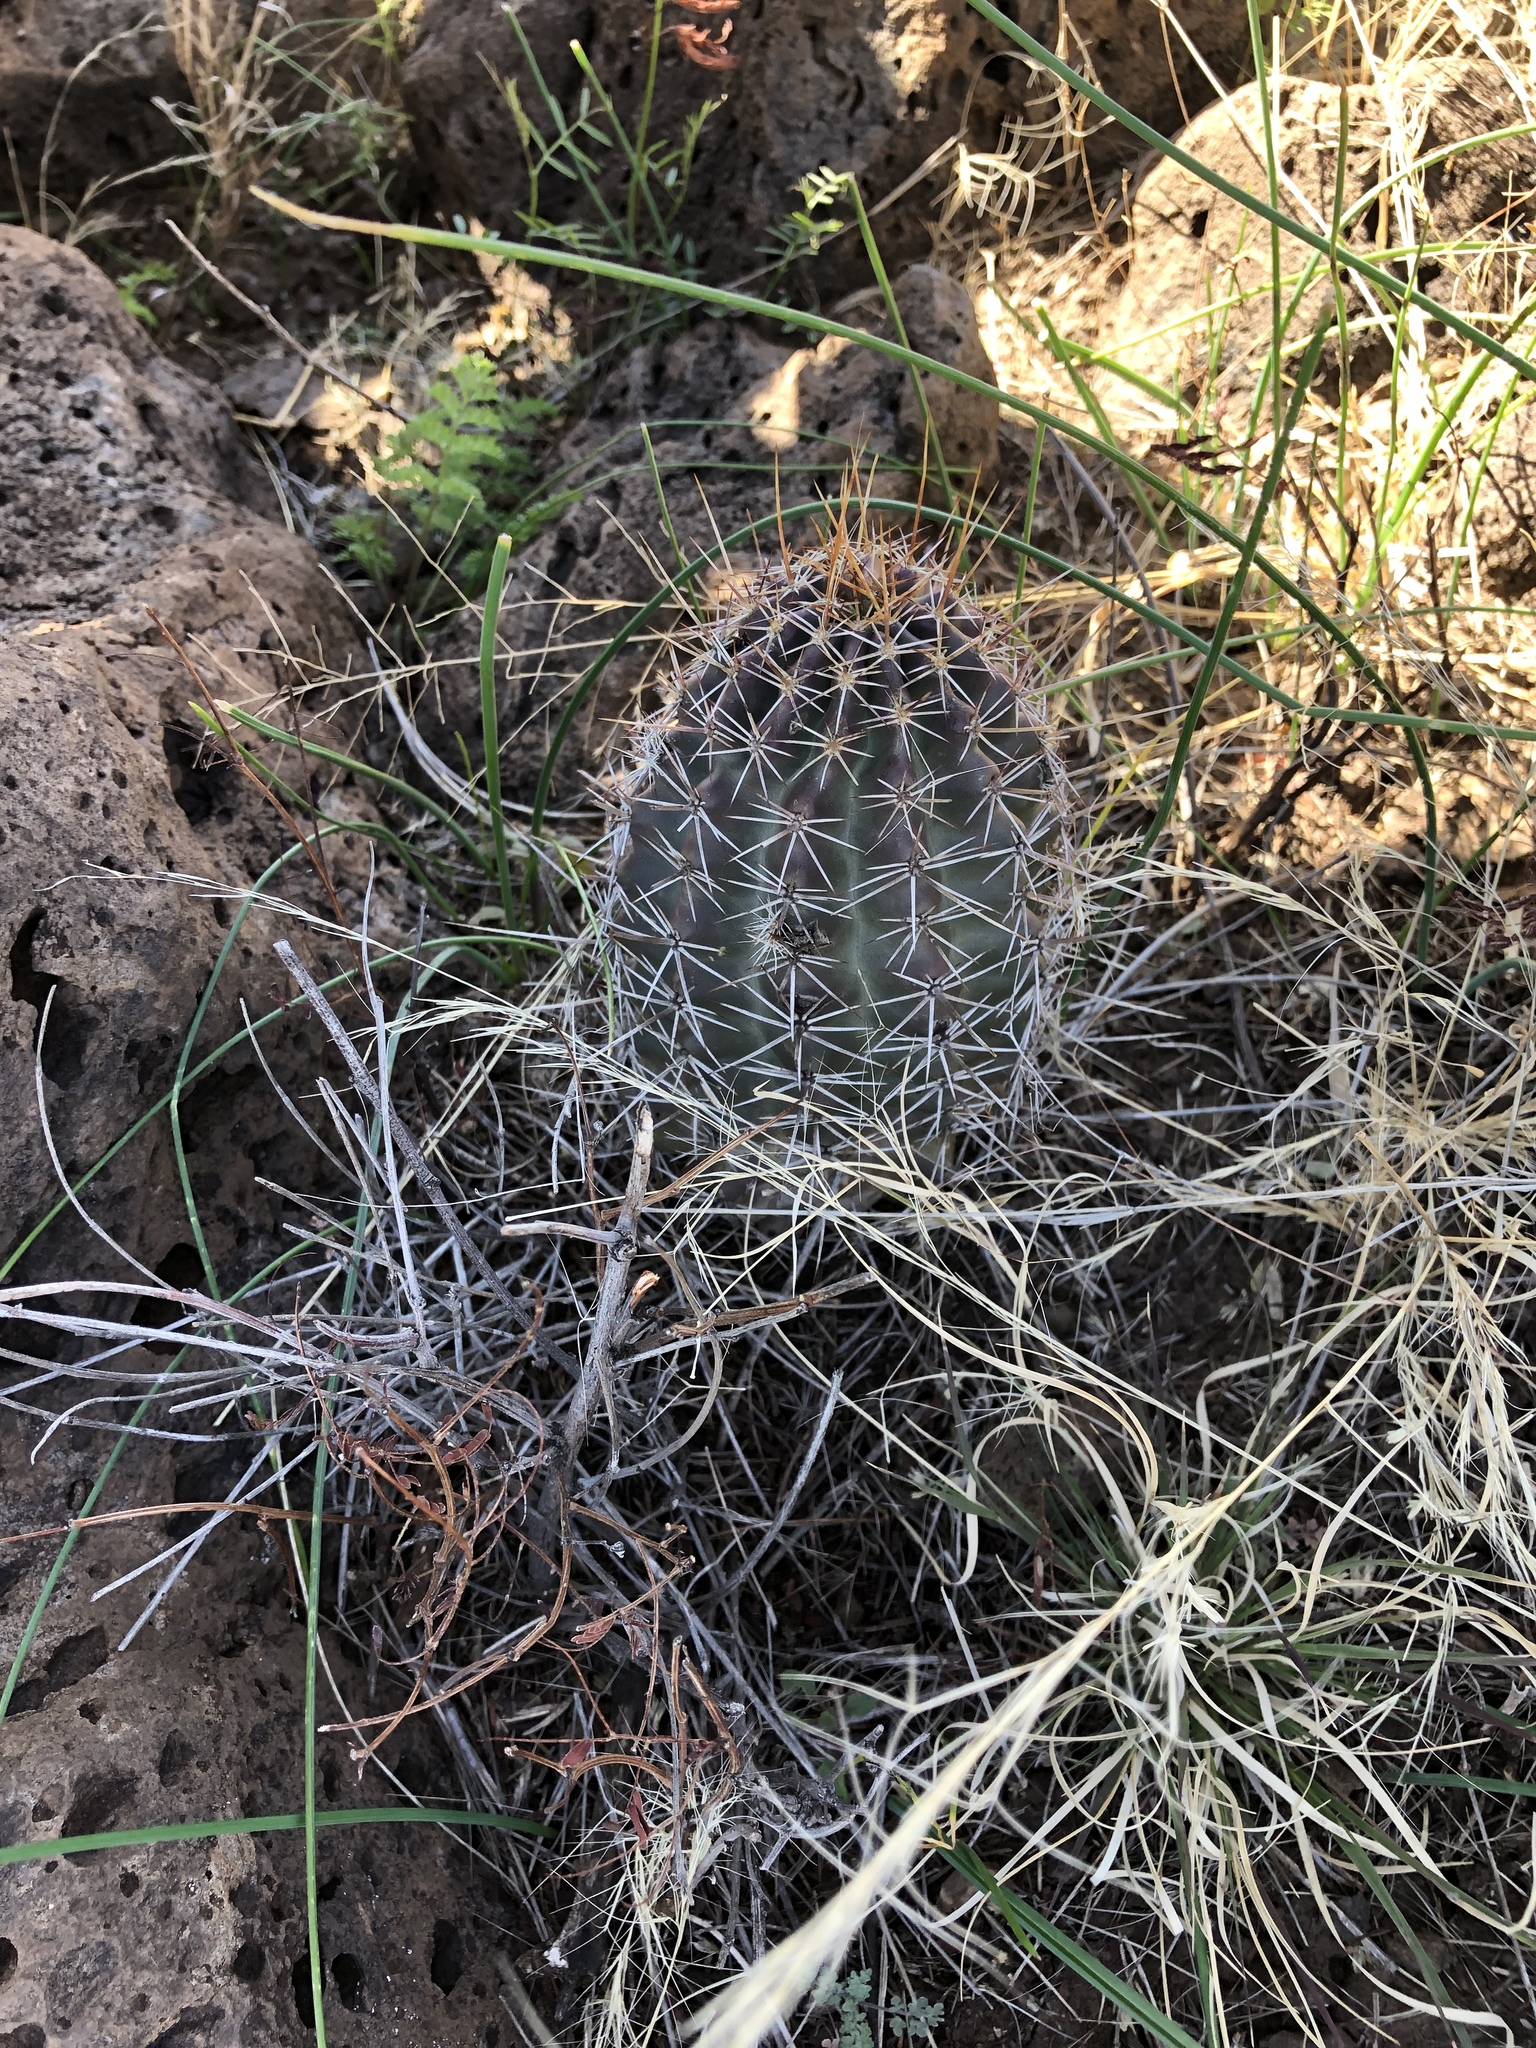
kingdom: Plantae
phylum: Tracheophyta
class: Magnoliopsida
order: Caryophyllales
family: Cactaceae
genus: Echinocereus
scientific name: Echinocereus fendleri
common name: Fendler's hedgehog cactus
